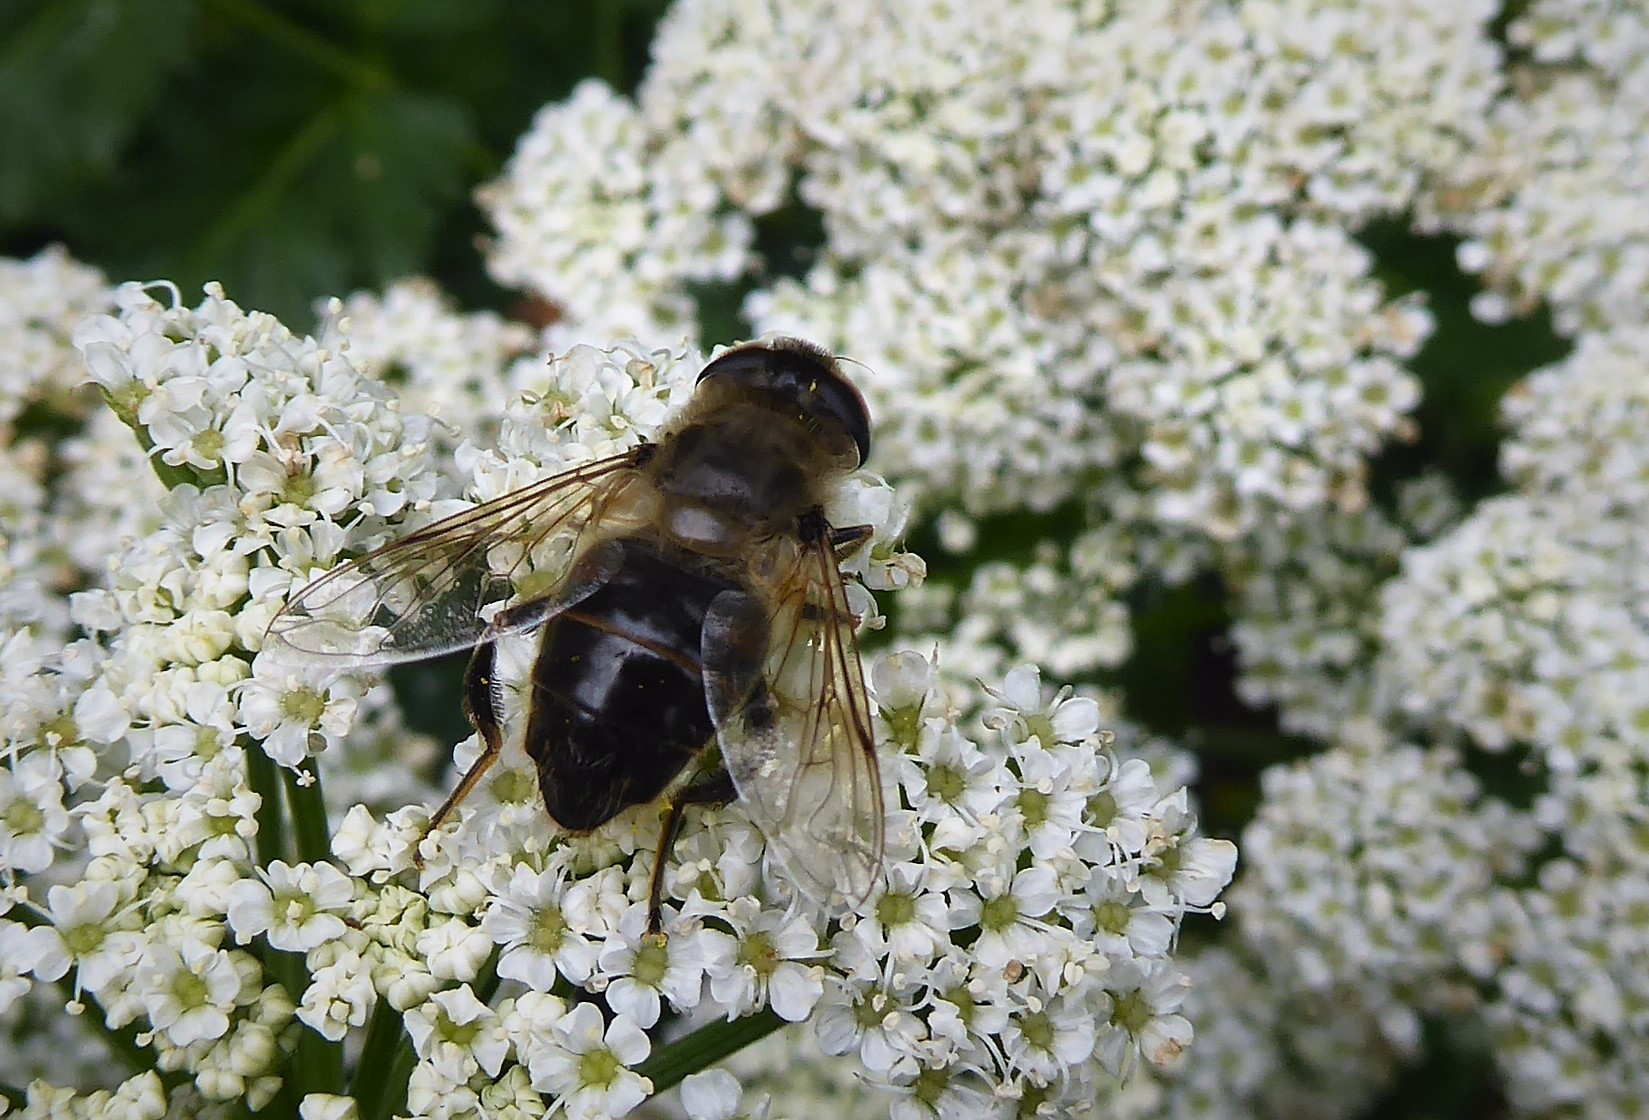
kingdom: Animalia
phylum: Arthropoda
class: Insecta
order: Diptera
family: Syrphidae
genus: Eristalis
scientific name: Eristalis tenax
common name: Drone fly
